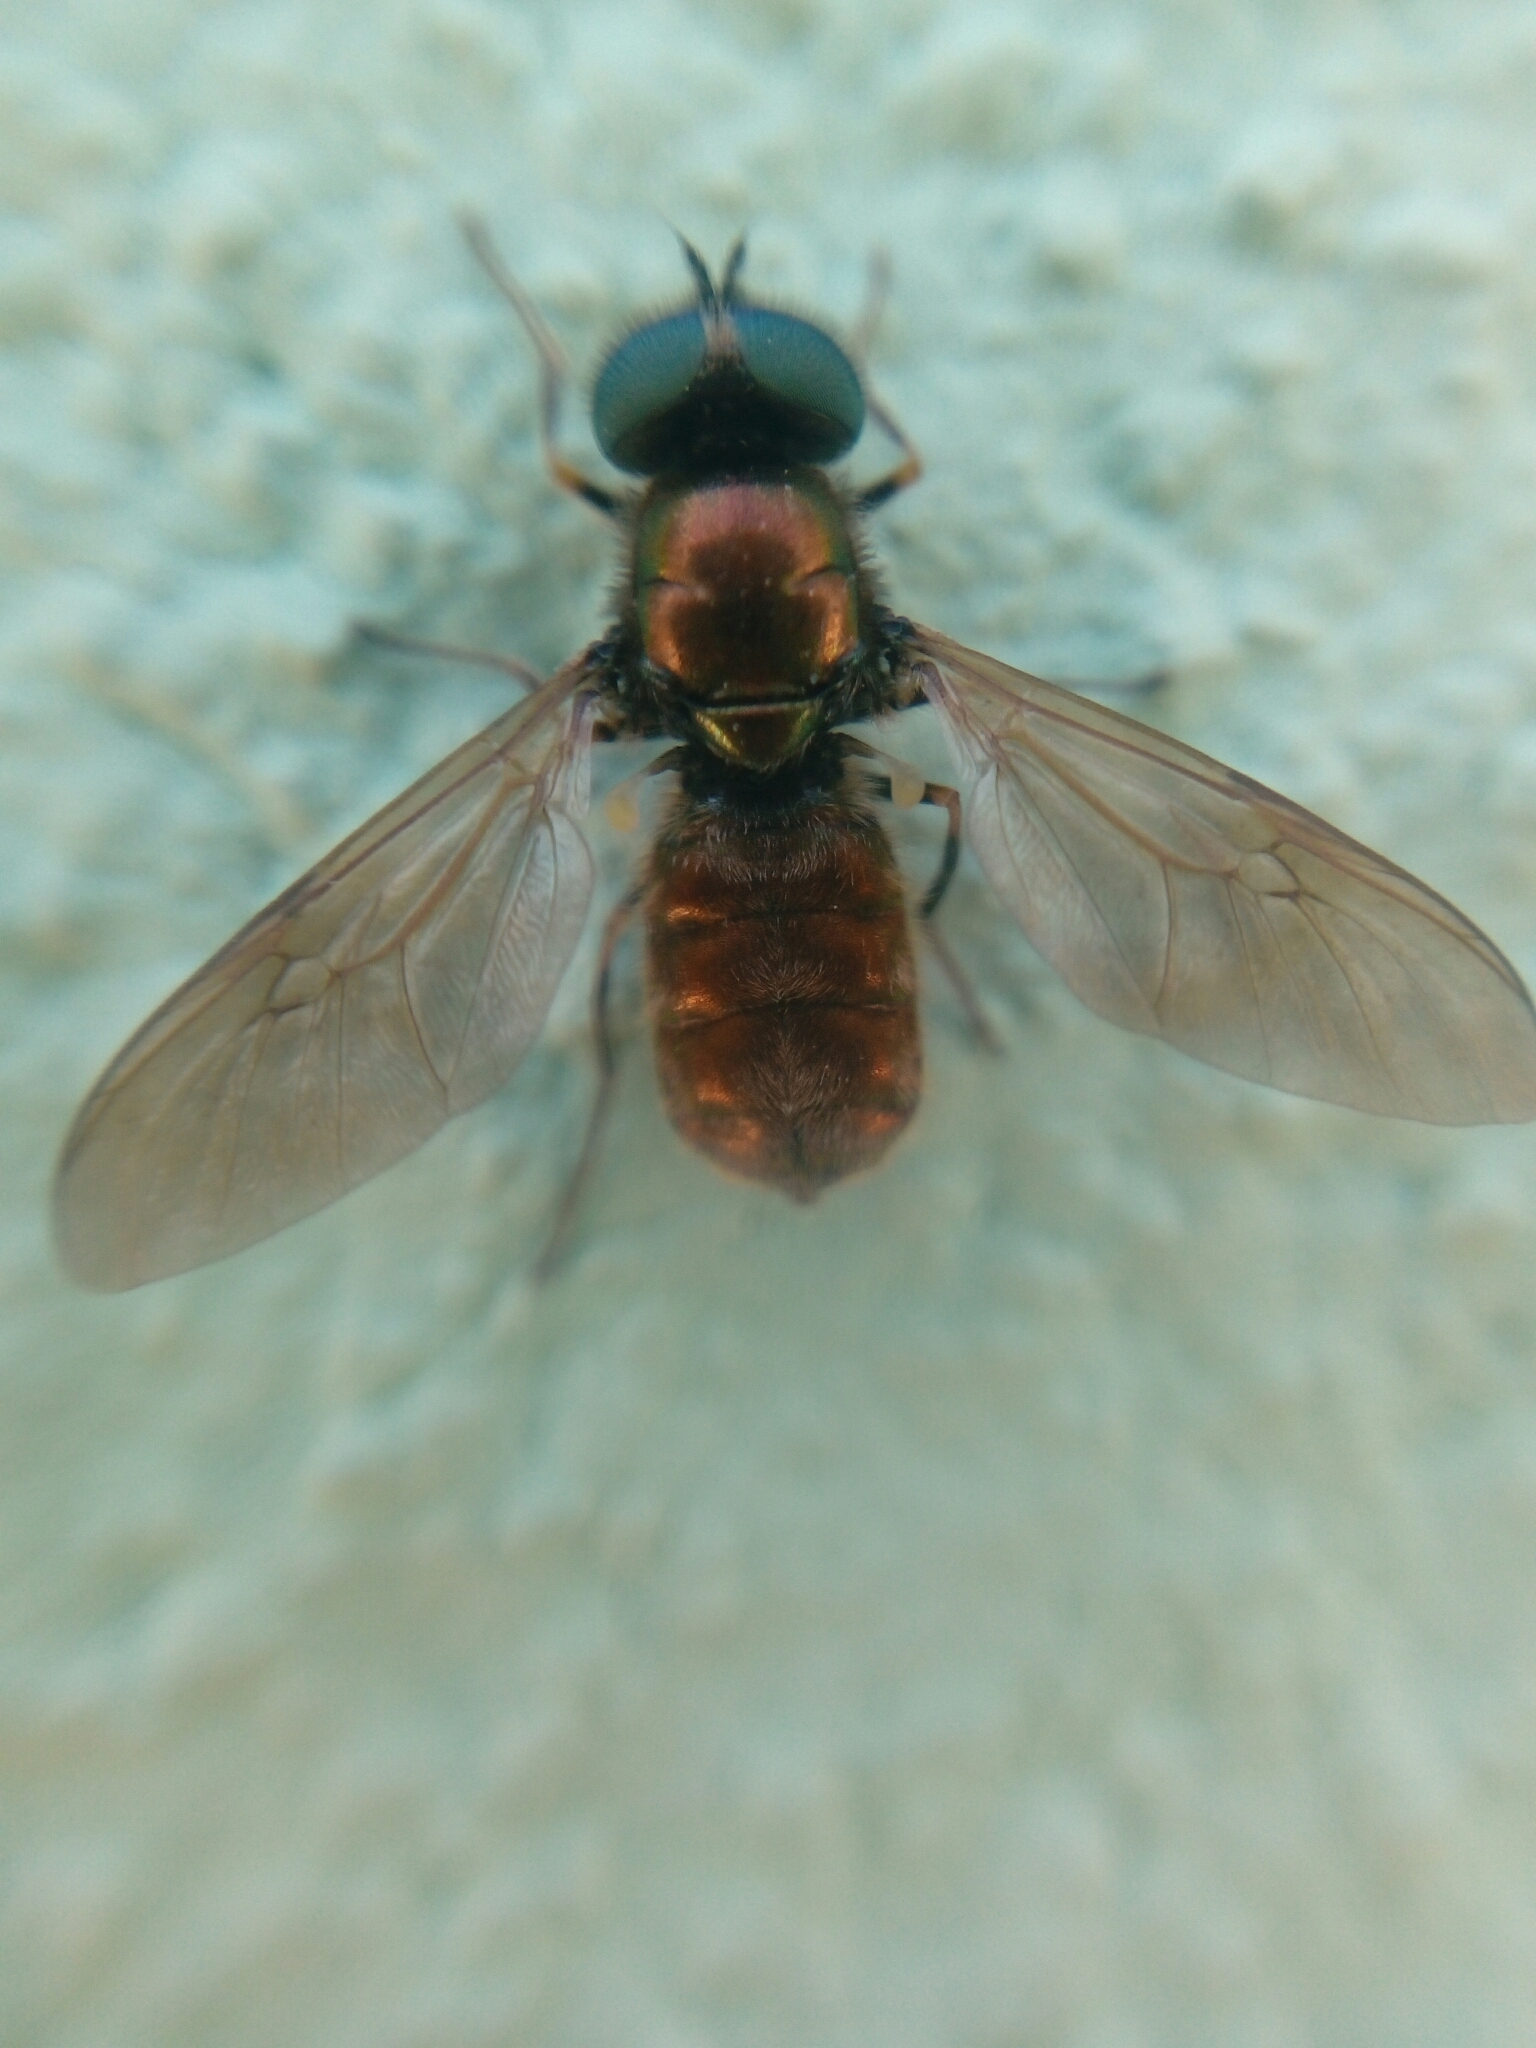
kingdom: Animalia
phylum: Arthropoda
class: Insecta
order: Diptera
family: Stratiomyidae
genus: Chloromyia
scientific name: Chloromyia formosa
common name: Soldier fly
